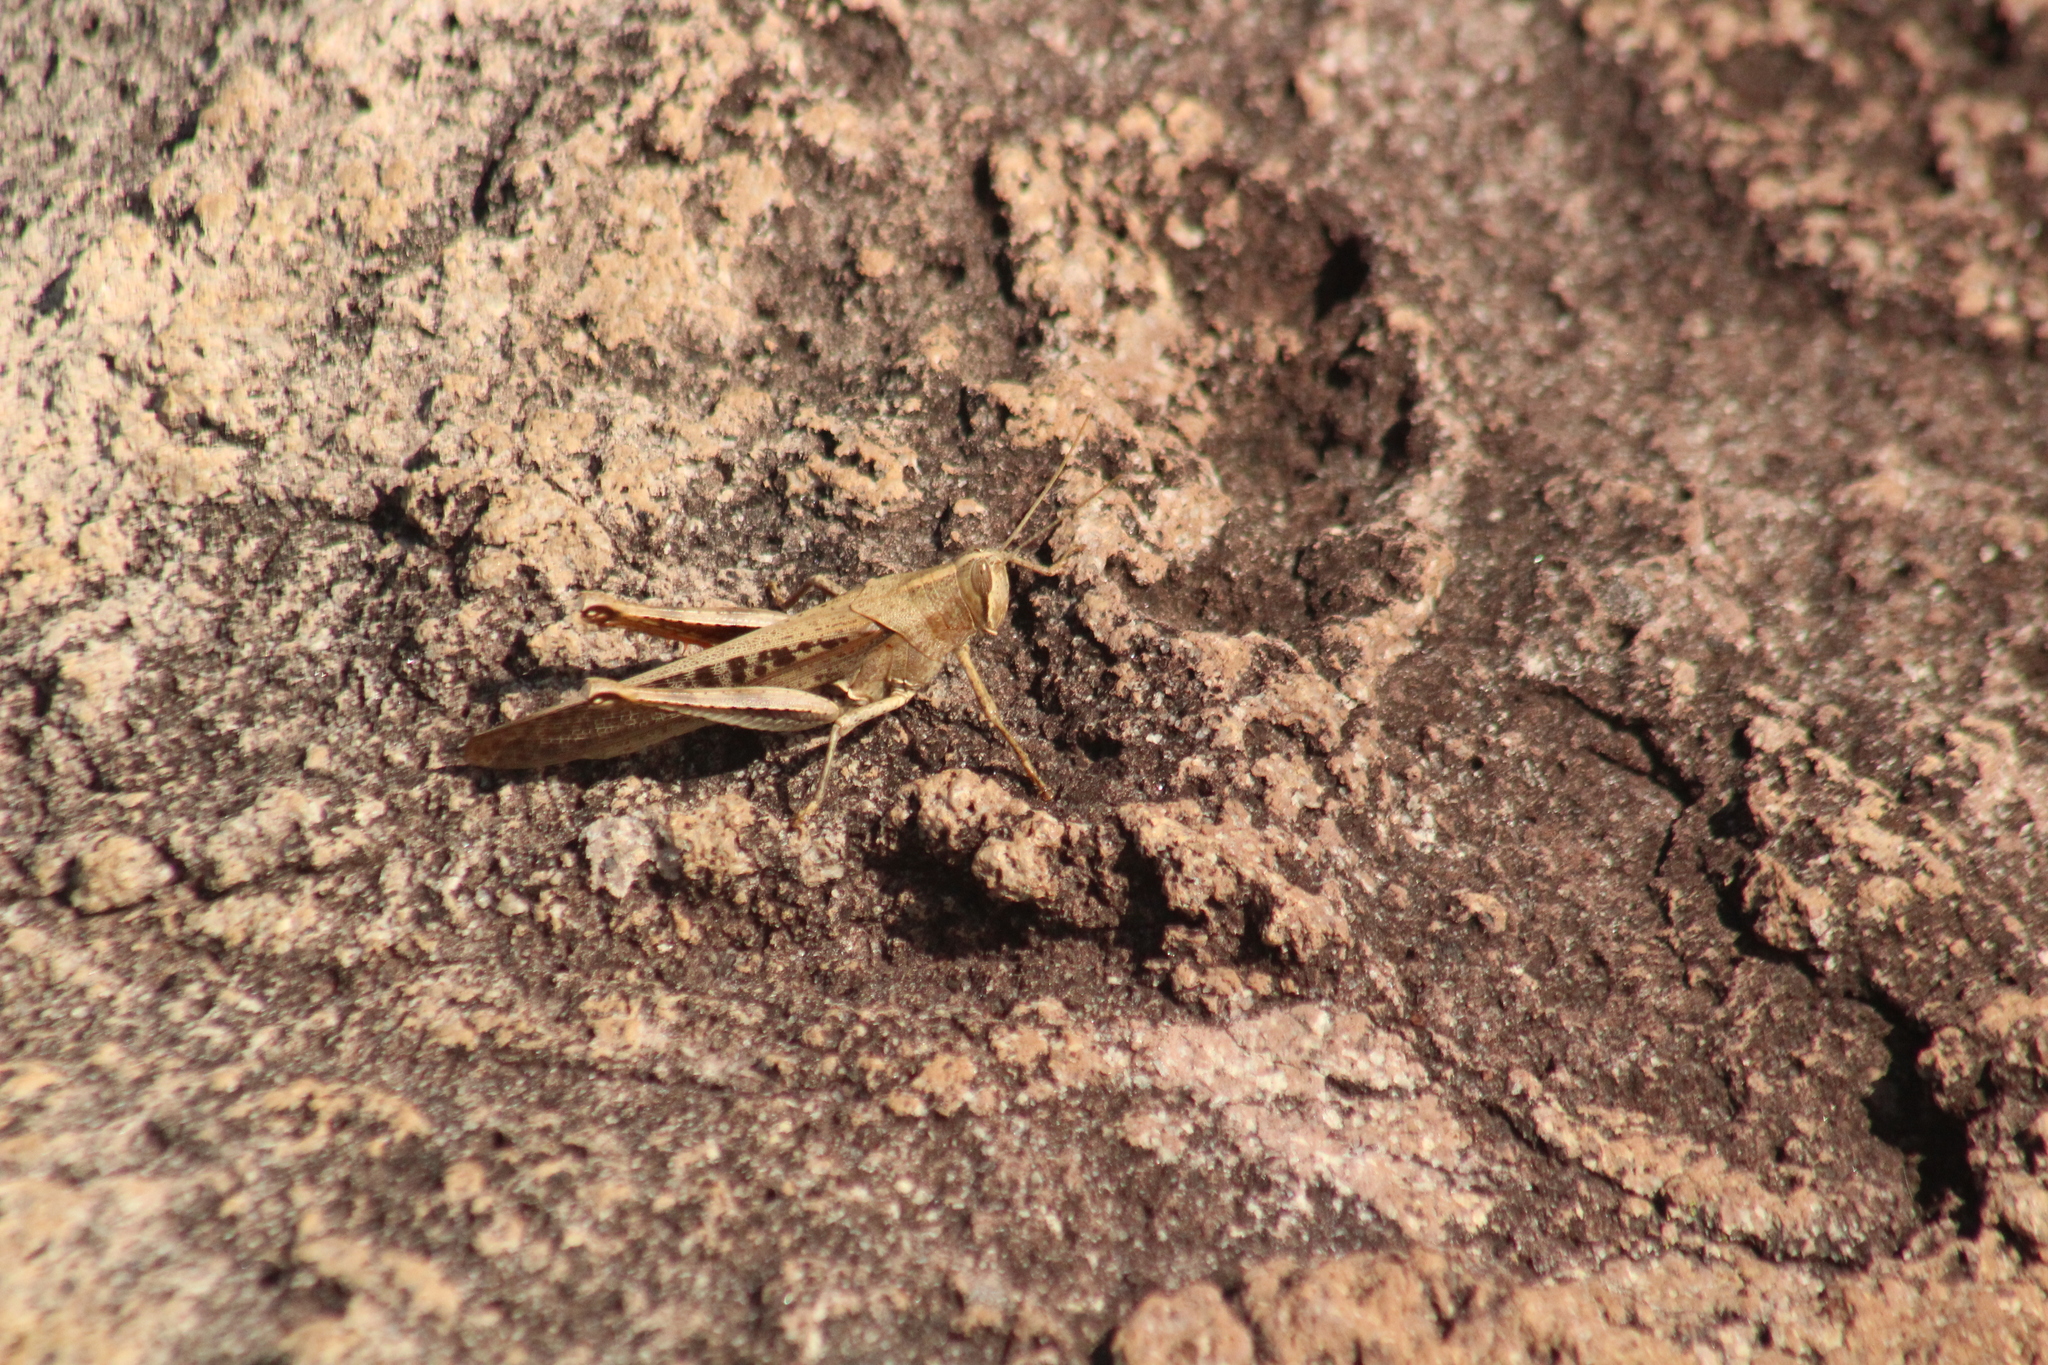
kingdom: Animalia
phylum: Arthropoda
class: Insecta
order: Orthoptera
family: Acrididae
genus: Schistocerca
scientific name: Schistocerca nitens
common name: Vagrant grasshopper
